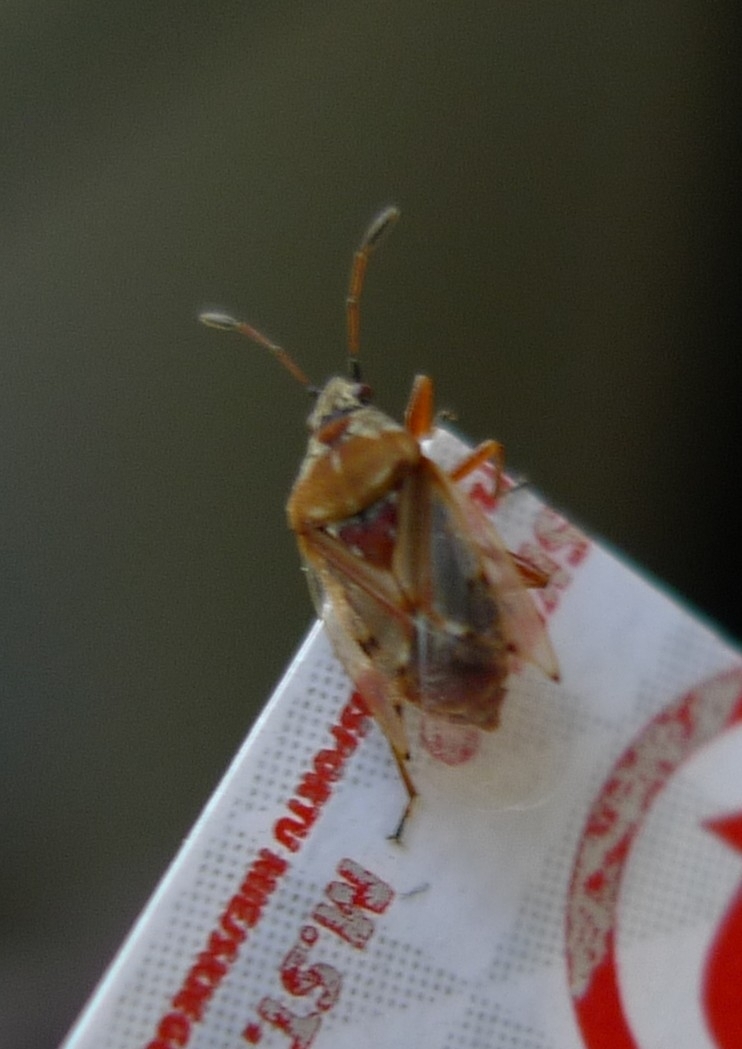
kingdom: Animalia
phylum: Arthropoda
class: Insecta
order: Hemiptera
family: Lygaeidae
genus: Kleidocerys
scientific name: Kleidocerys resedae
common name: Birch catkin bug
